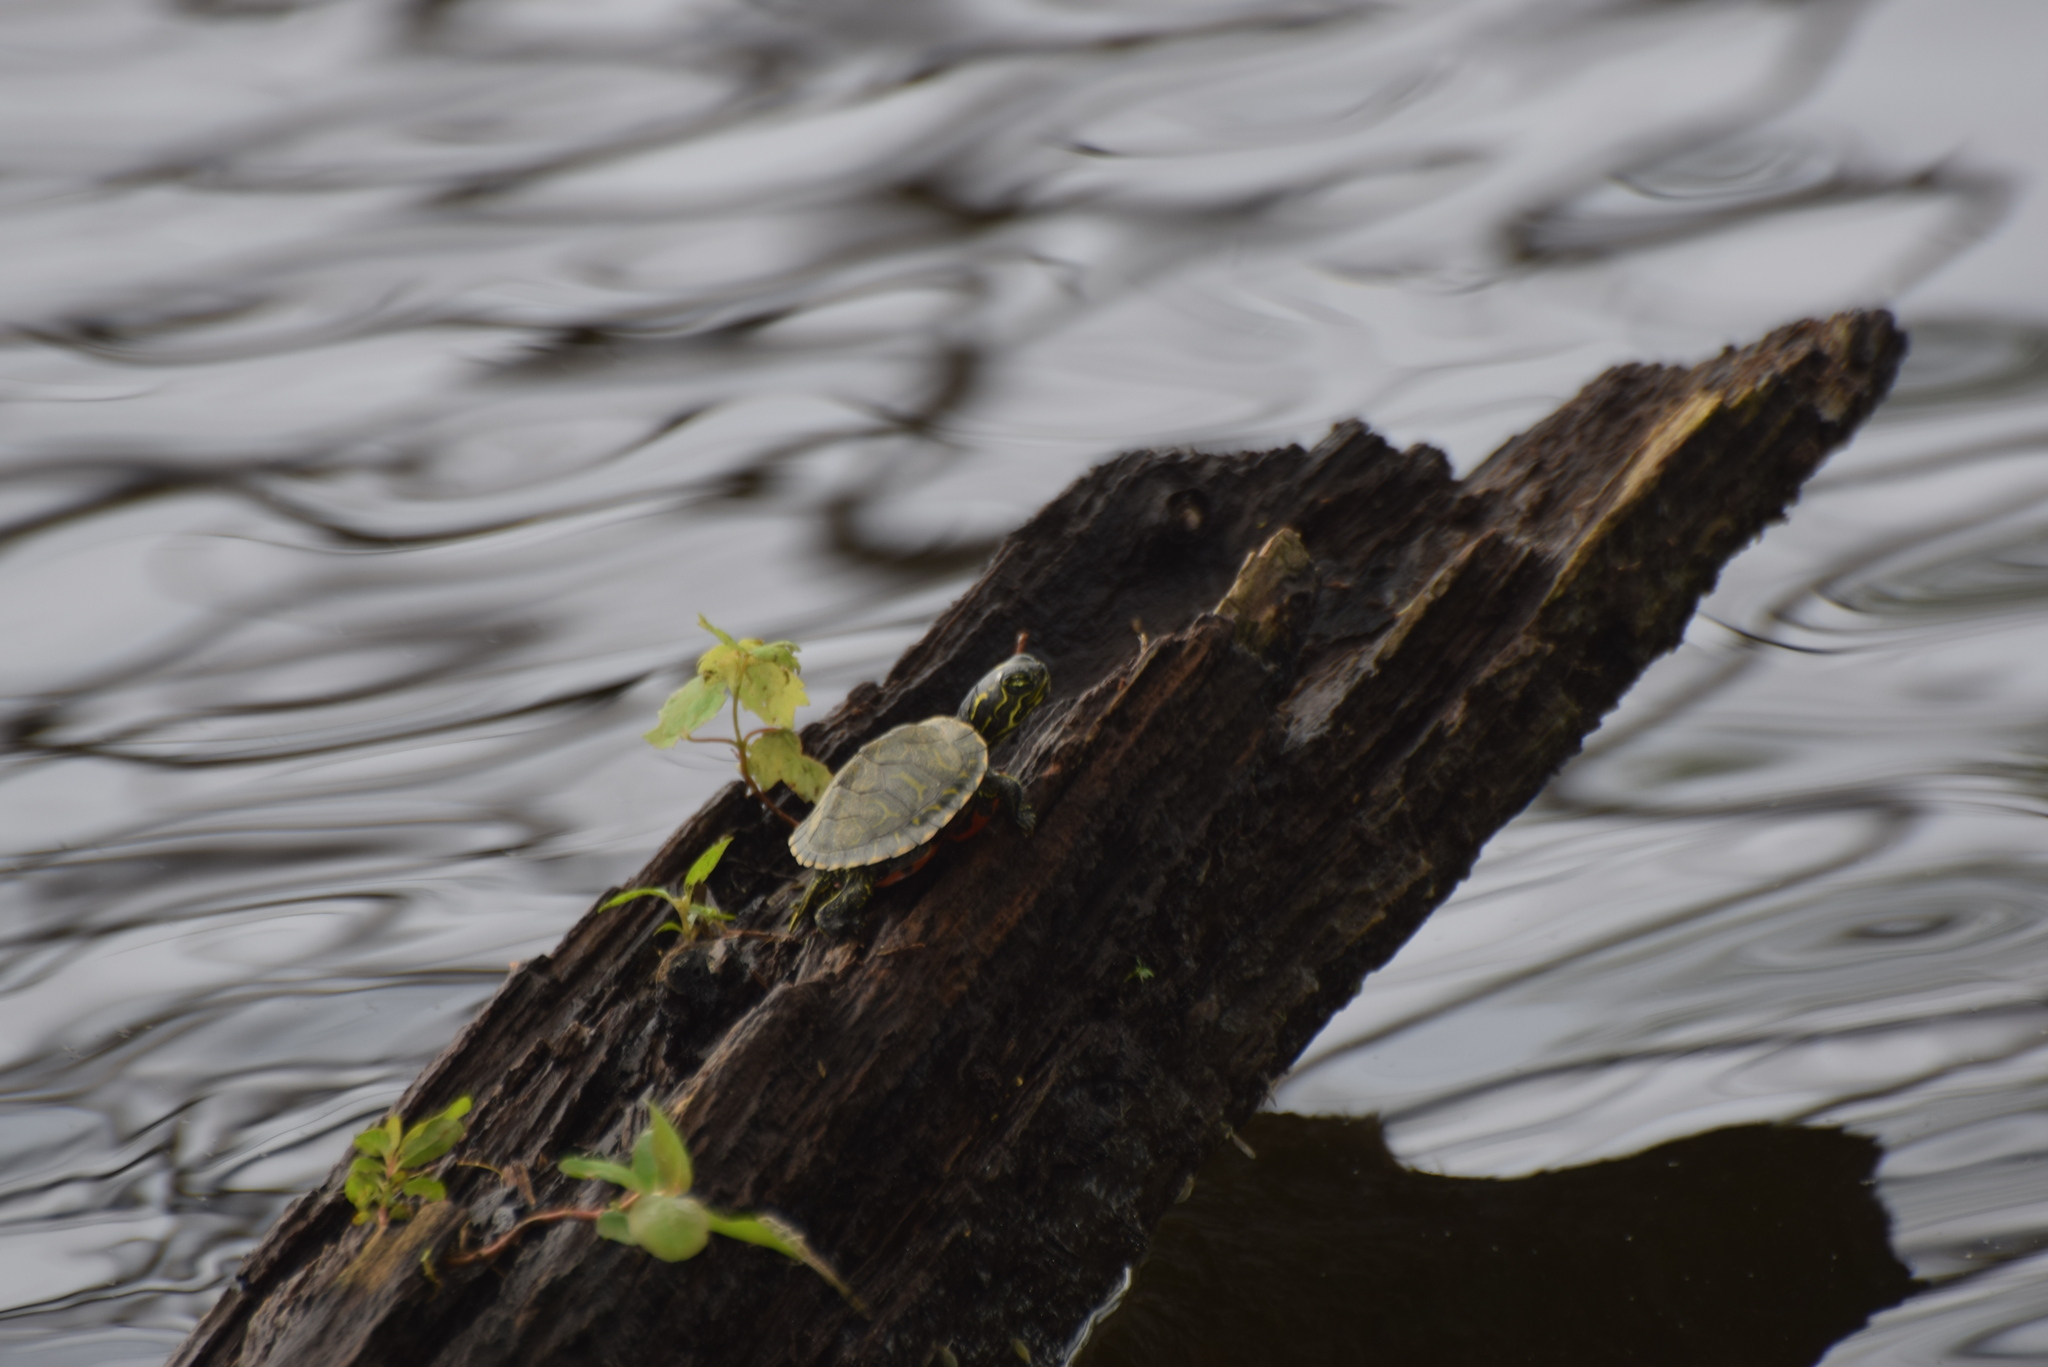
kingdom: Animalia
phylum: Chordata
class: Testudines
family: Emydidae
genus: Pseudemys
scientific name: Pseudemys rubriventris
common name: American red-bellied turtle
